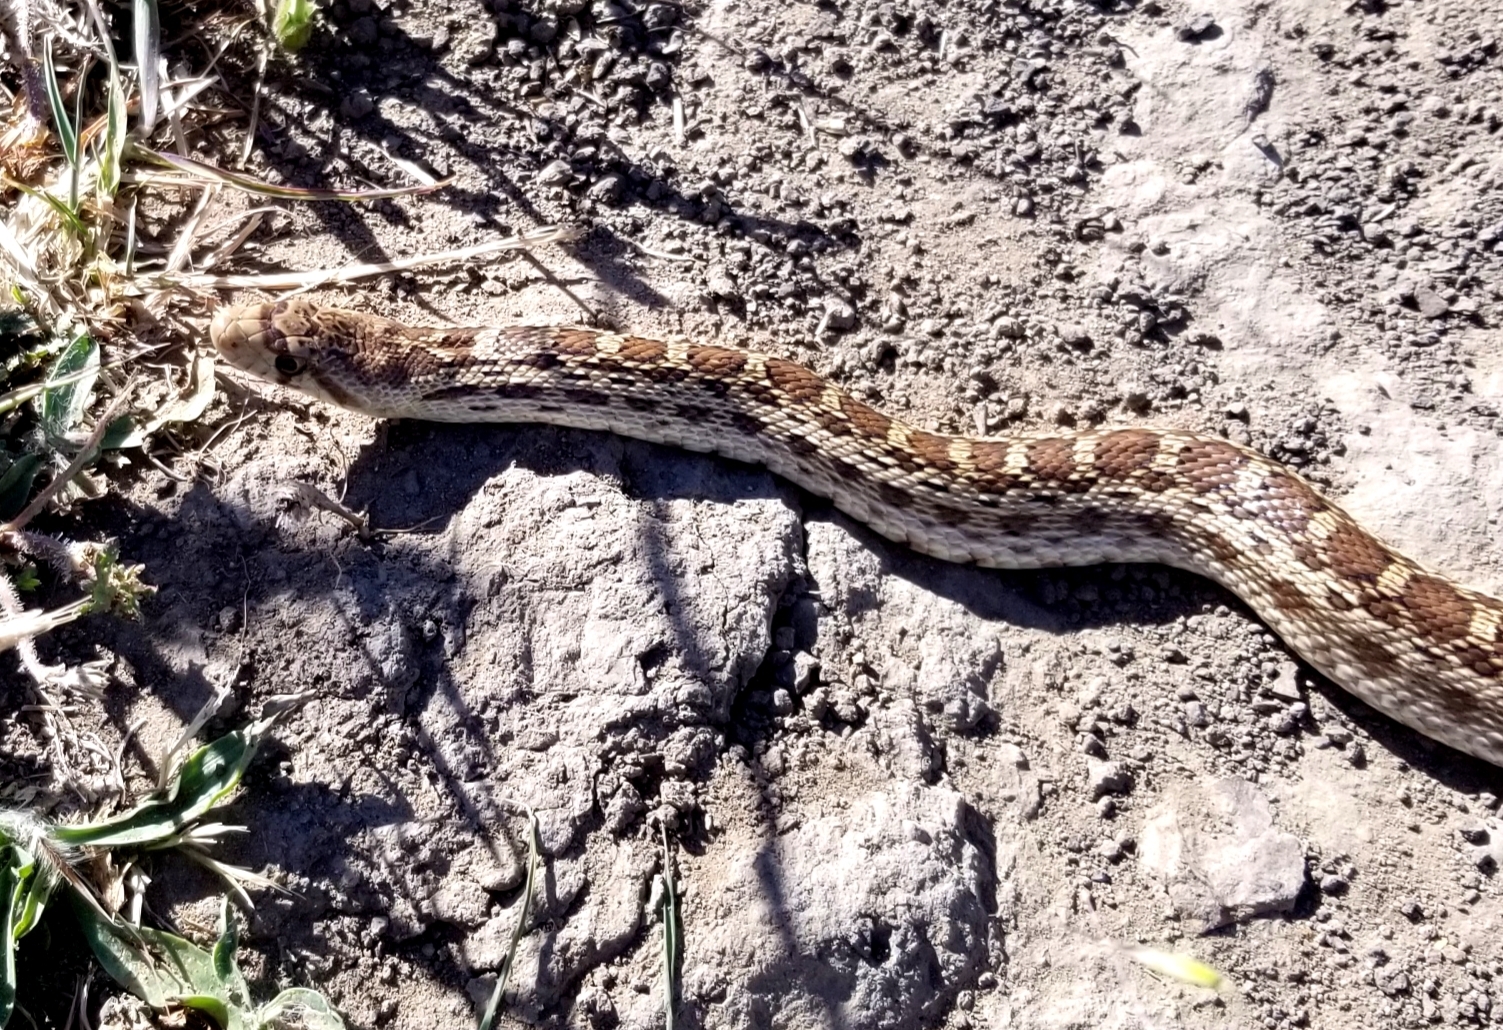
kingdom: Animalia
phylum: Chordata
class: Squamata
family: Colubridae
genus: Pituophis
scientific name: Pituophis catenifer
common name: Gopher snake
